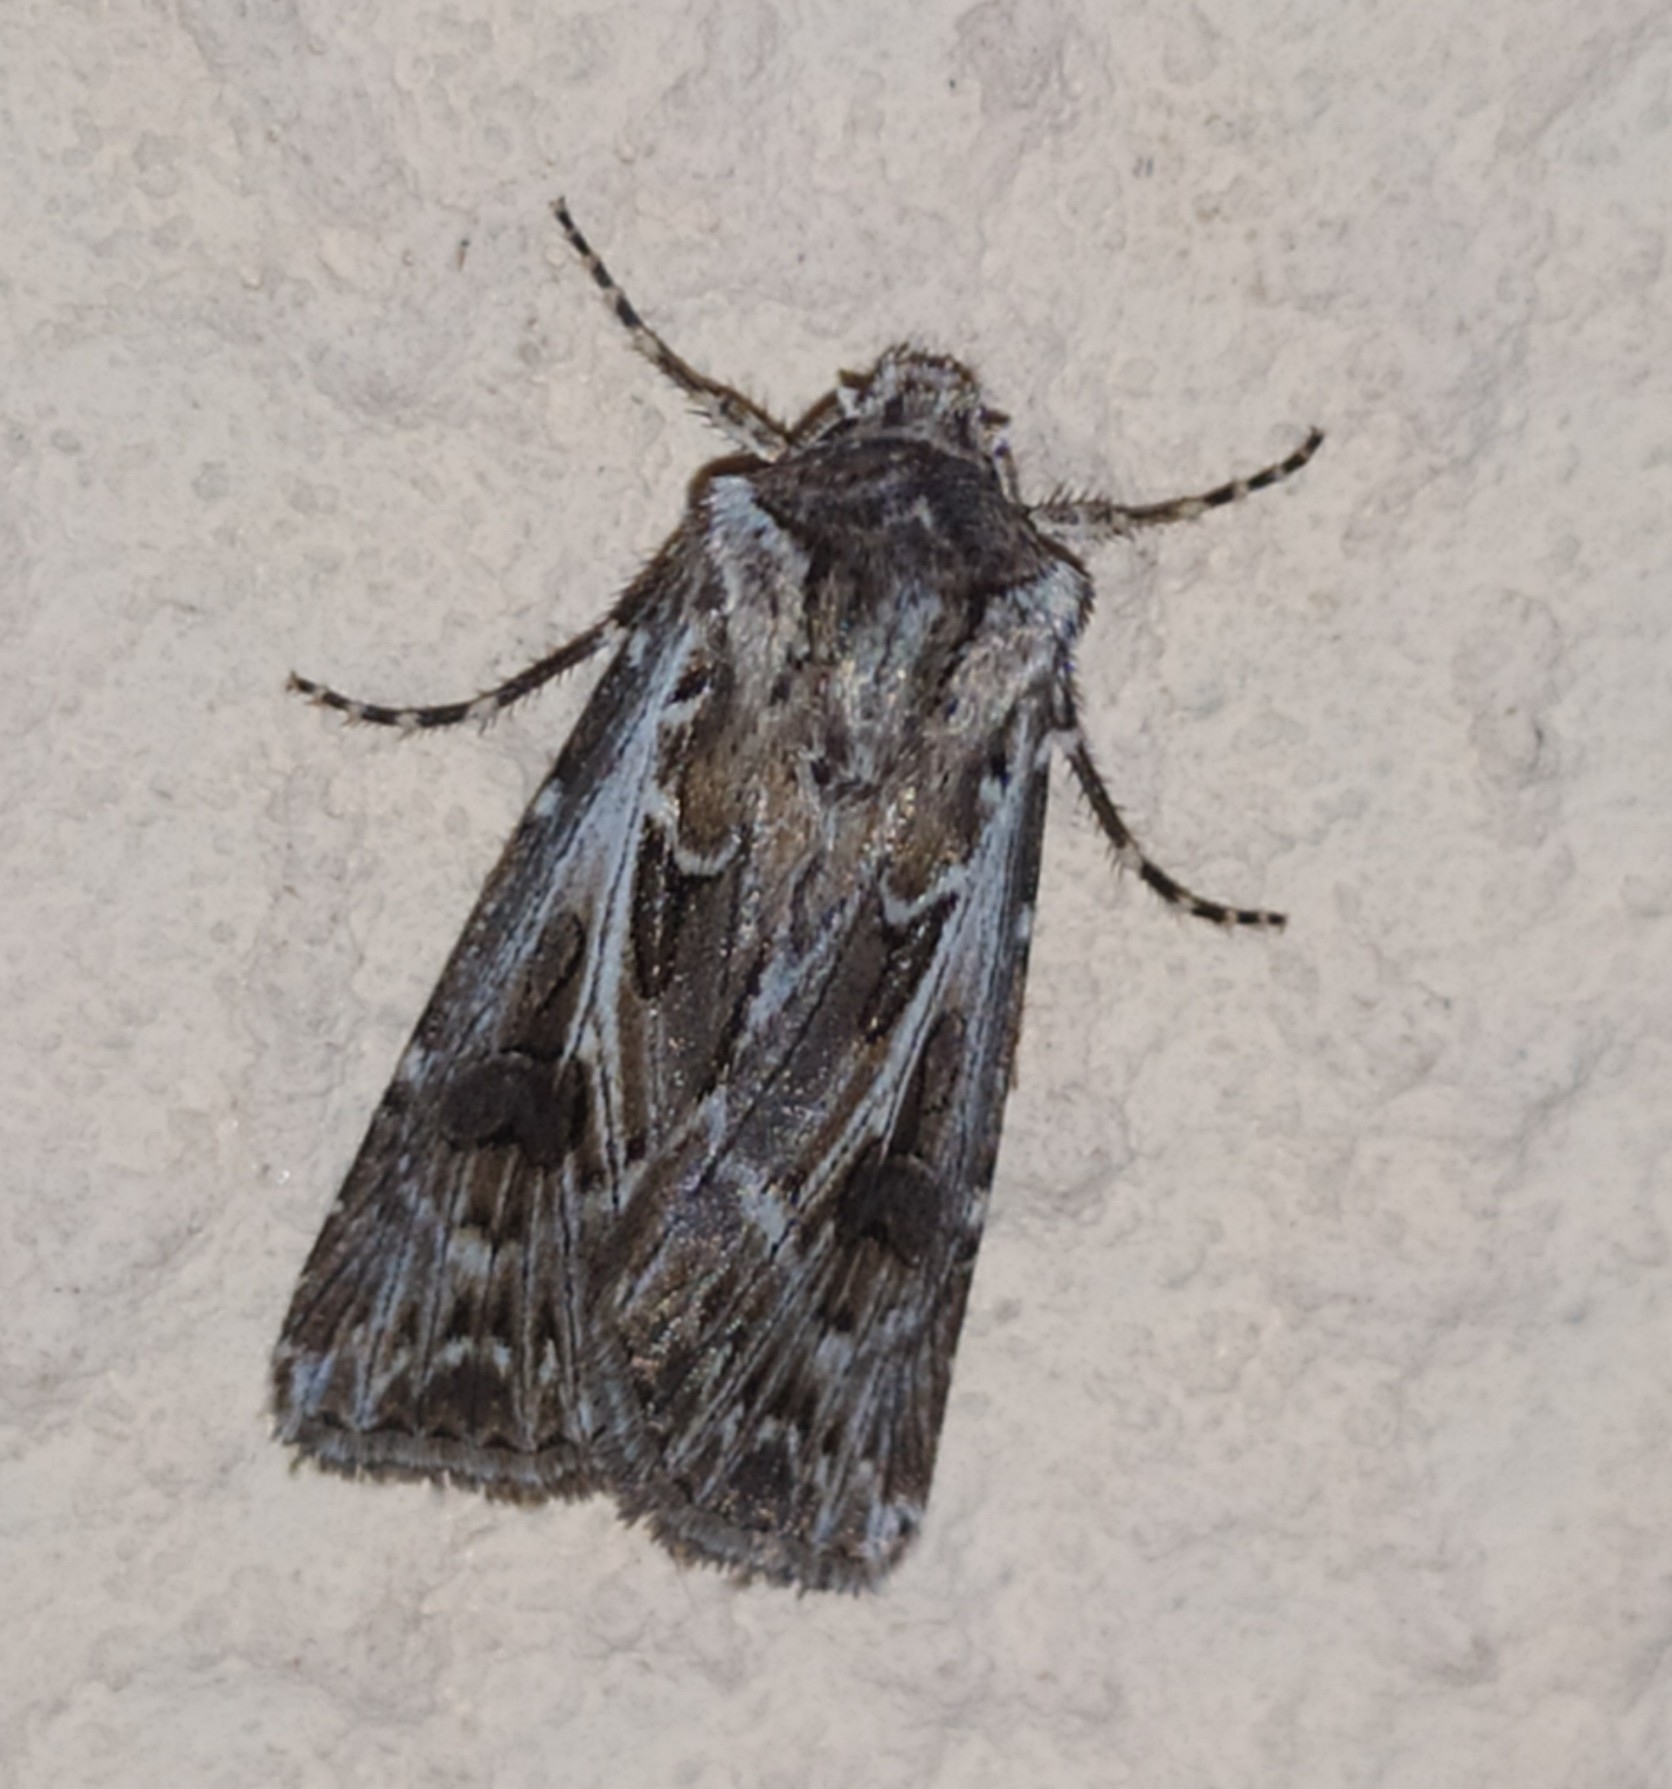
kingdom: Animalia
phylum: Arthropoda
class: Insecta
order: Lepidoptera
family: Noctuidae
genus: Agrotis
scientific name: Agrotis vestigialis
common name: Archer's dart
